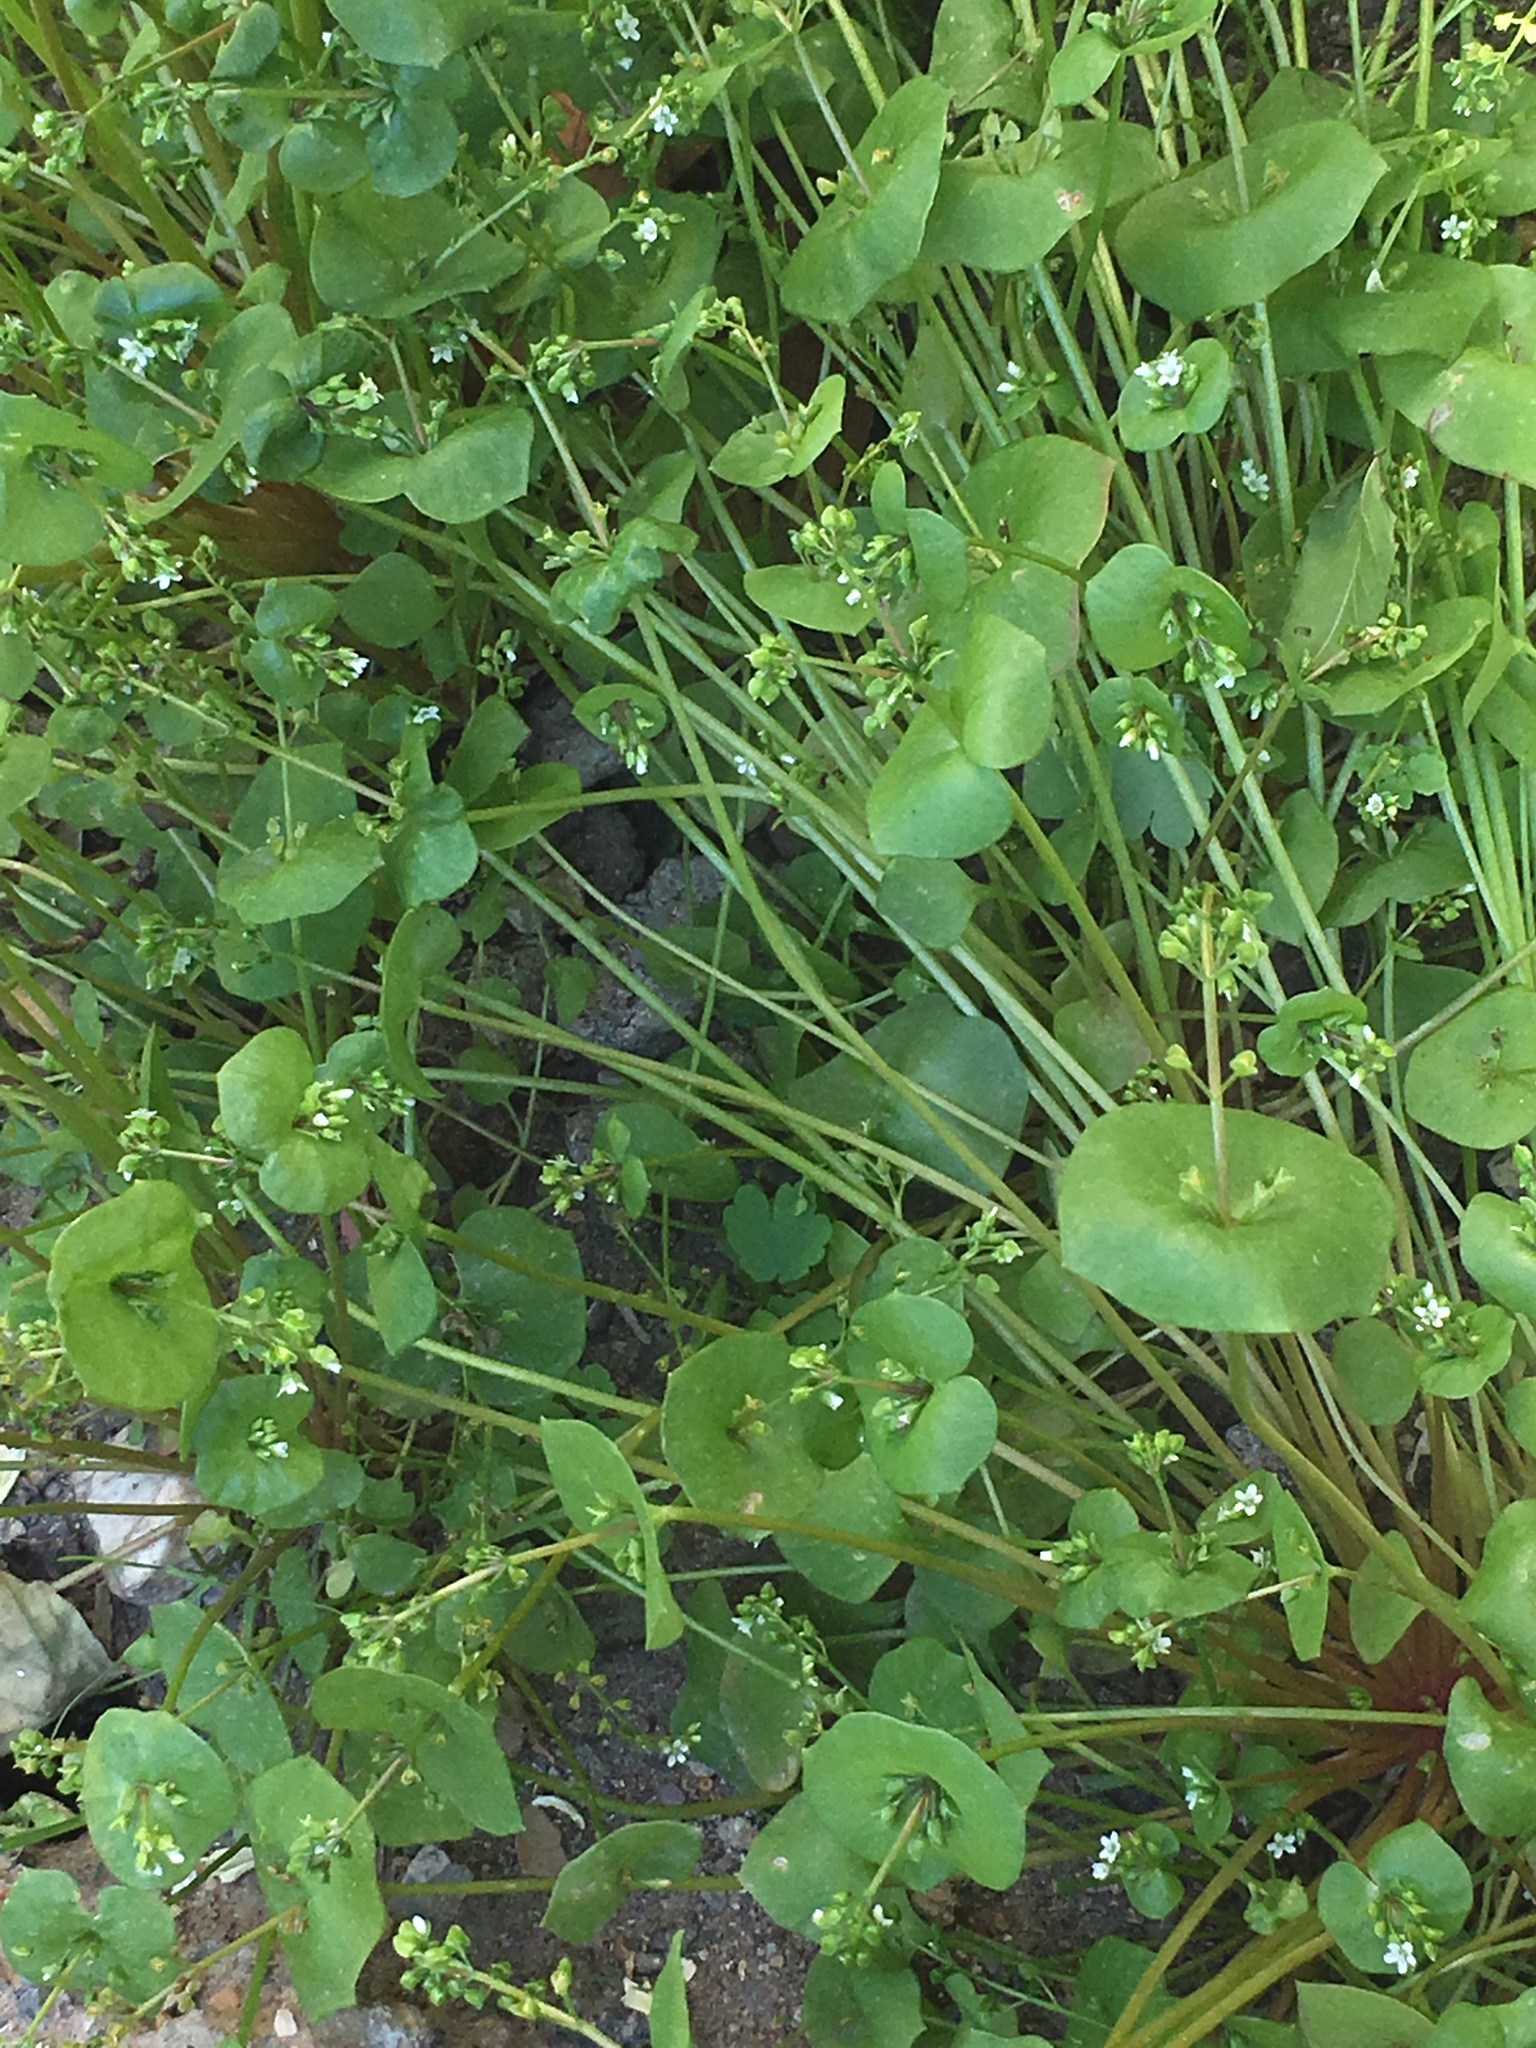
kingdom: Plantae
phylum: Tracheophyta
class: Magnoliopsida
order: Caryophyllales
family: Montiaceae
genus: Claytonia
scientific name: Claytonia perfoliata
